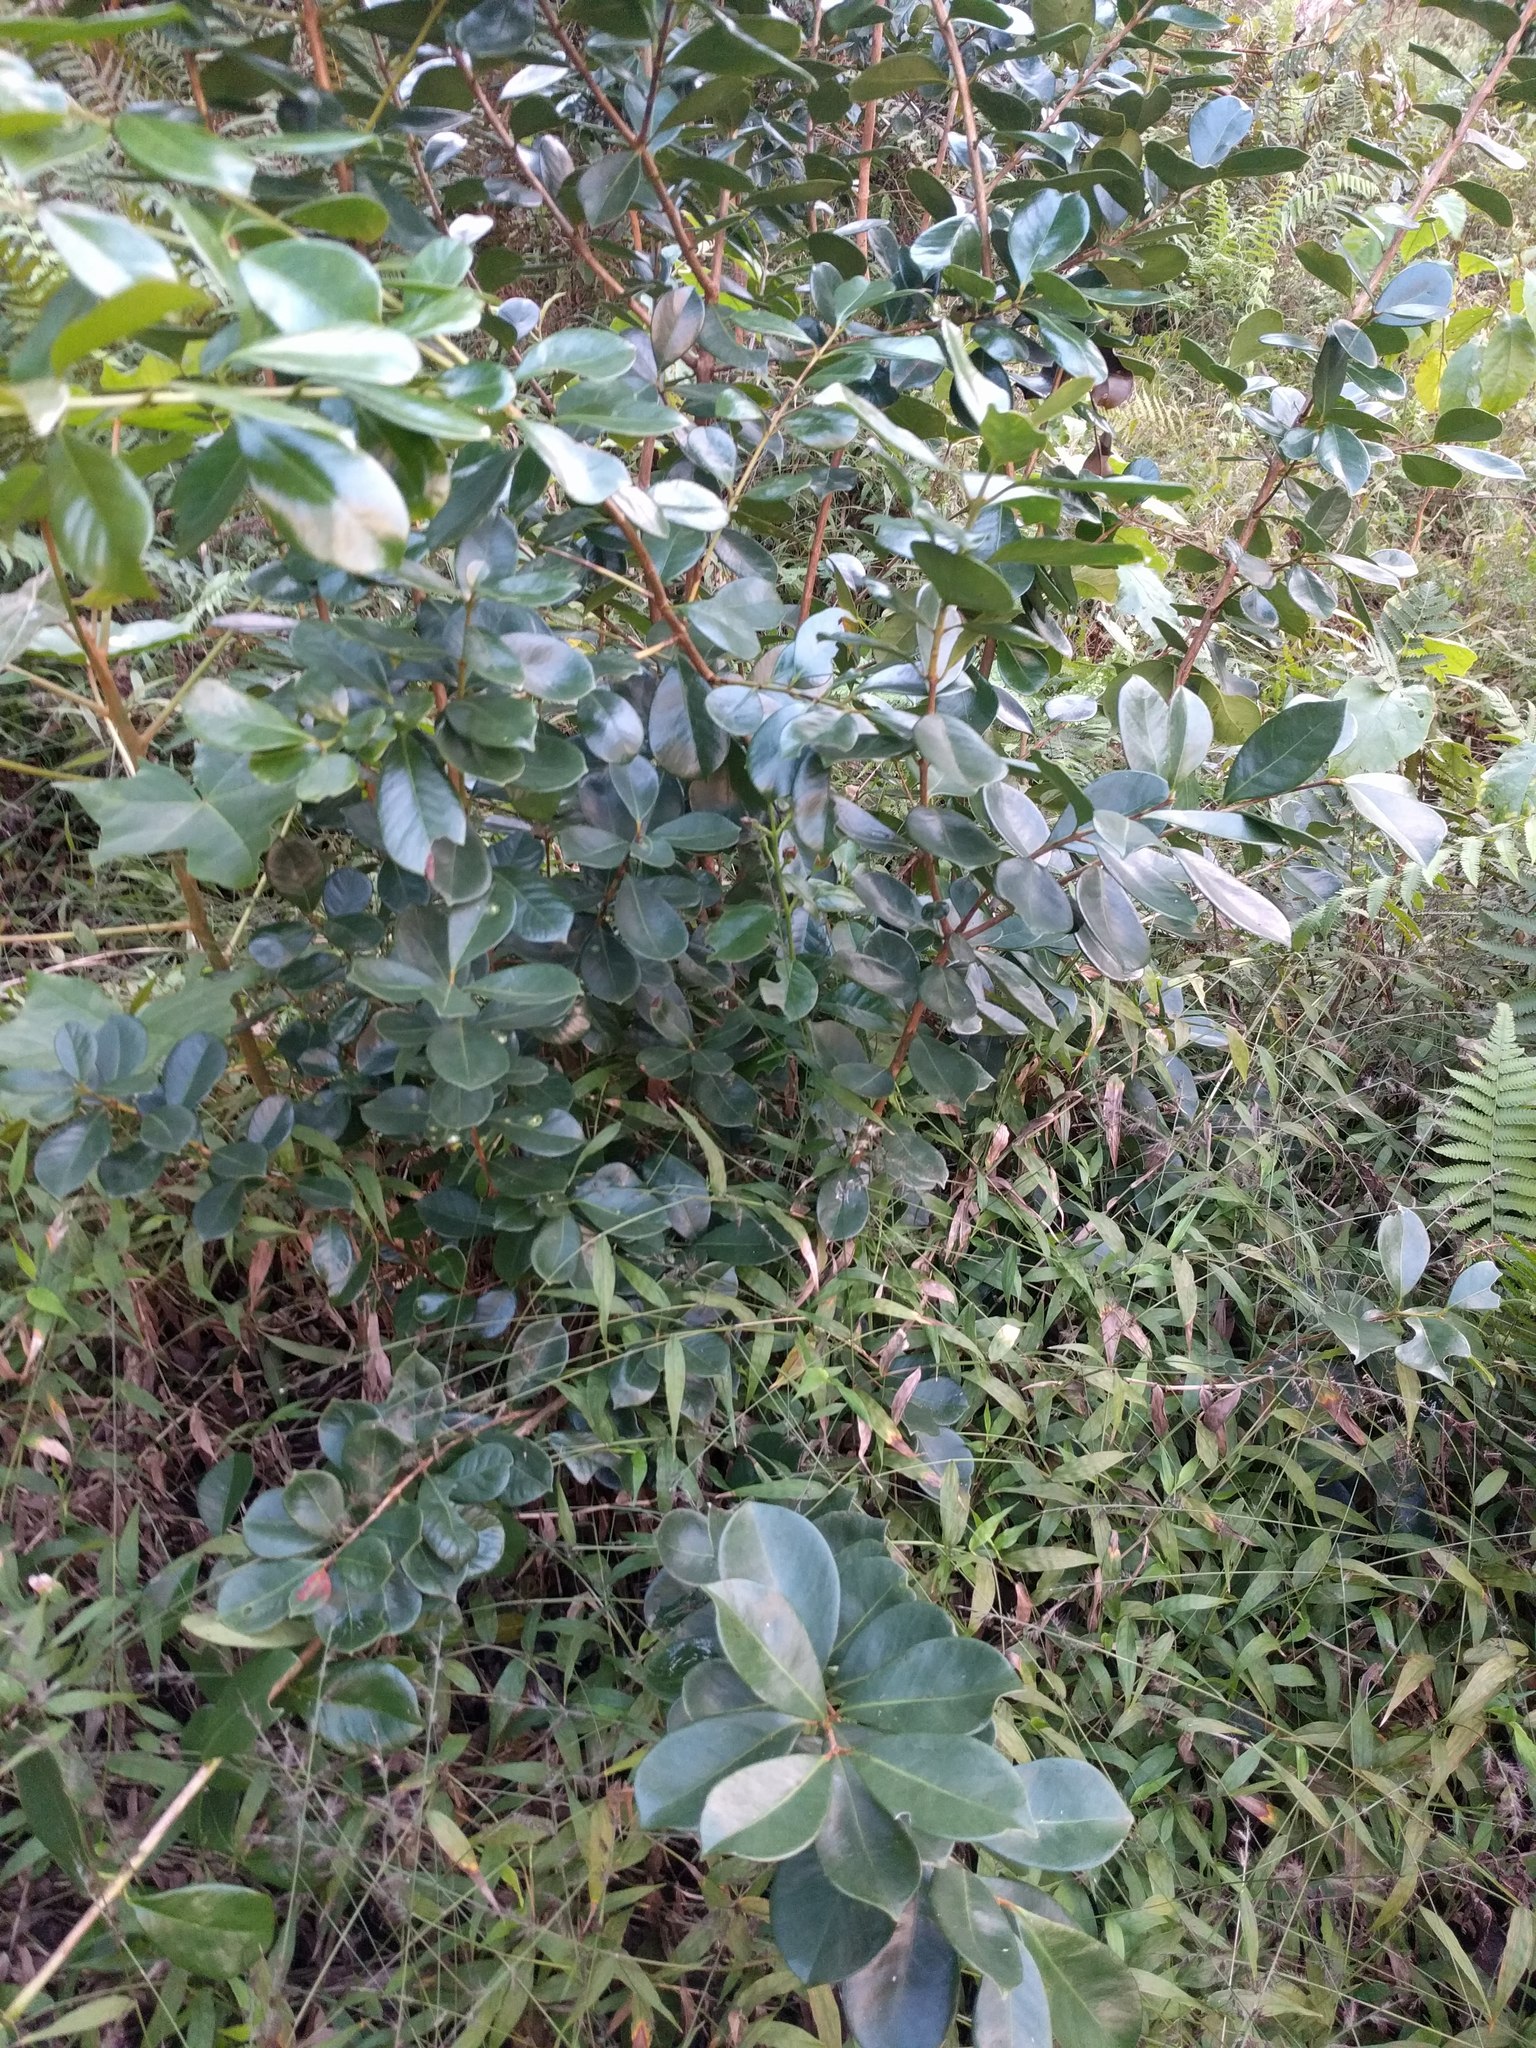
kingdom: Plantae
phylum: Tracheophyta
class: Magnoliopsida
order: Myrtales
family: Myrtaceae
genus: Psidium
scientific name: Psidium cattleianum
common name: Strawberry guava
